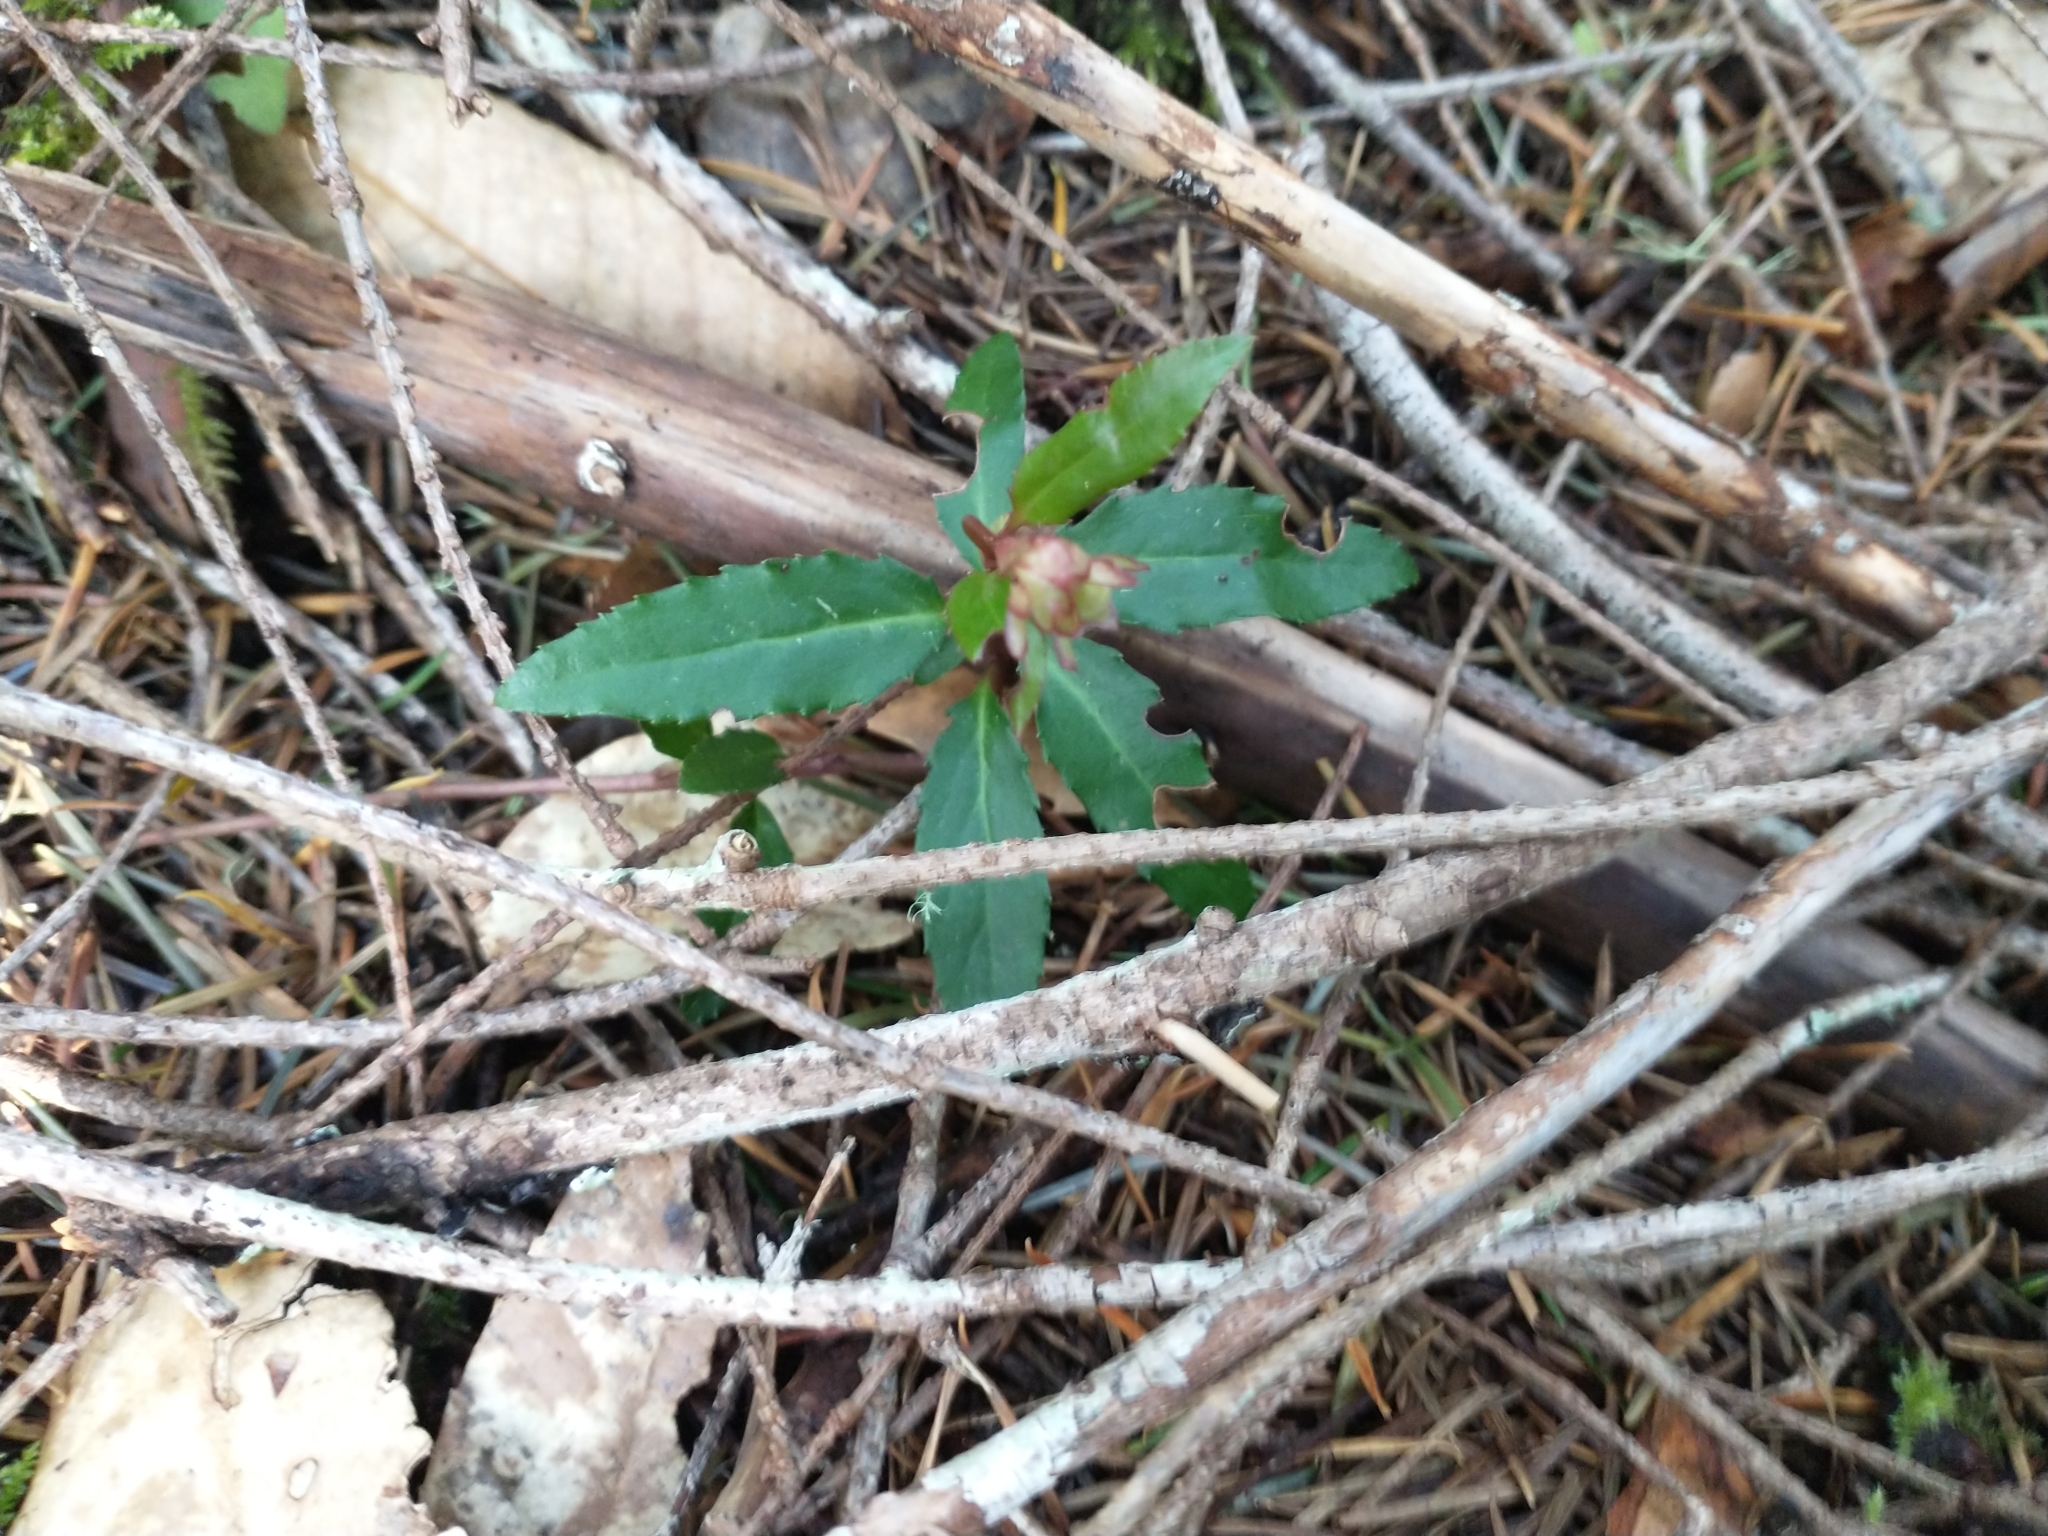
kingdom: Plantae
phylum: Tracheophyta
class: Magnoliopsida
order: Ericales
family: Ericaceae
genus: Chimaphila
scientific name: Chimaphila menziesii
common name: Menzies' pipsissewa
